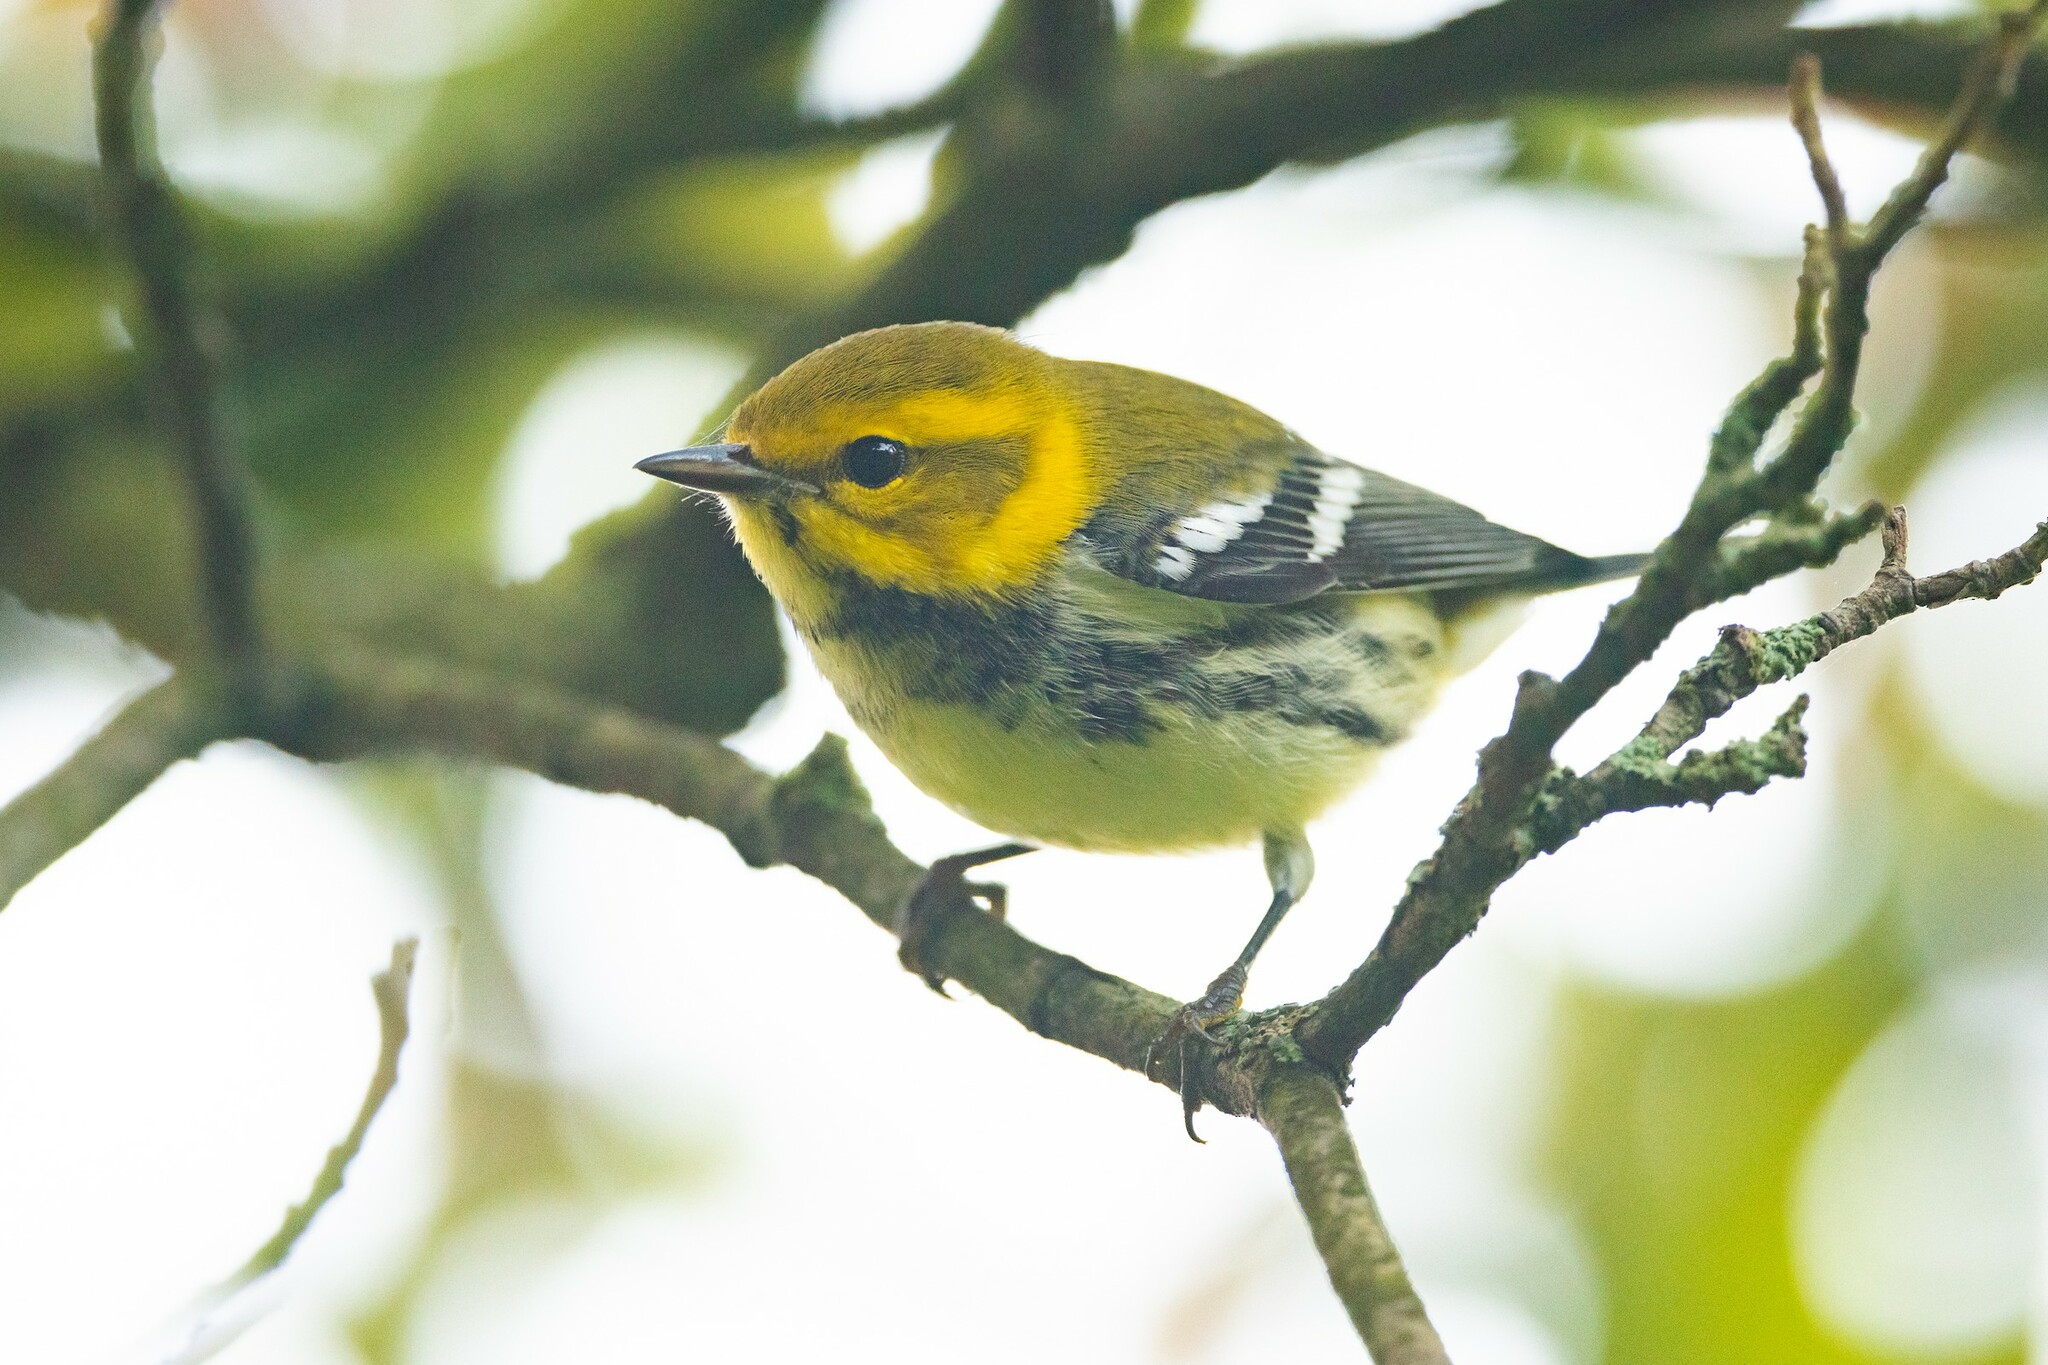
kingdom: Animalia
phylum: Chordata
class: Aves
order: Passeriformes
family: Parulidae
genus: Setophaga
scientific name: Setophaga virens
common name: Black-throated green warbler
